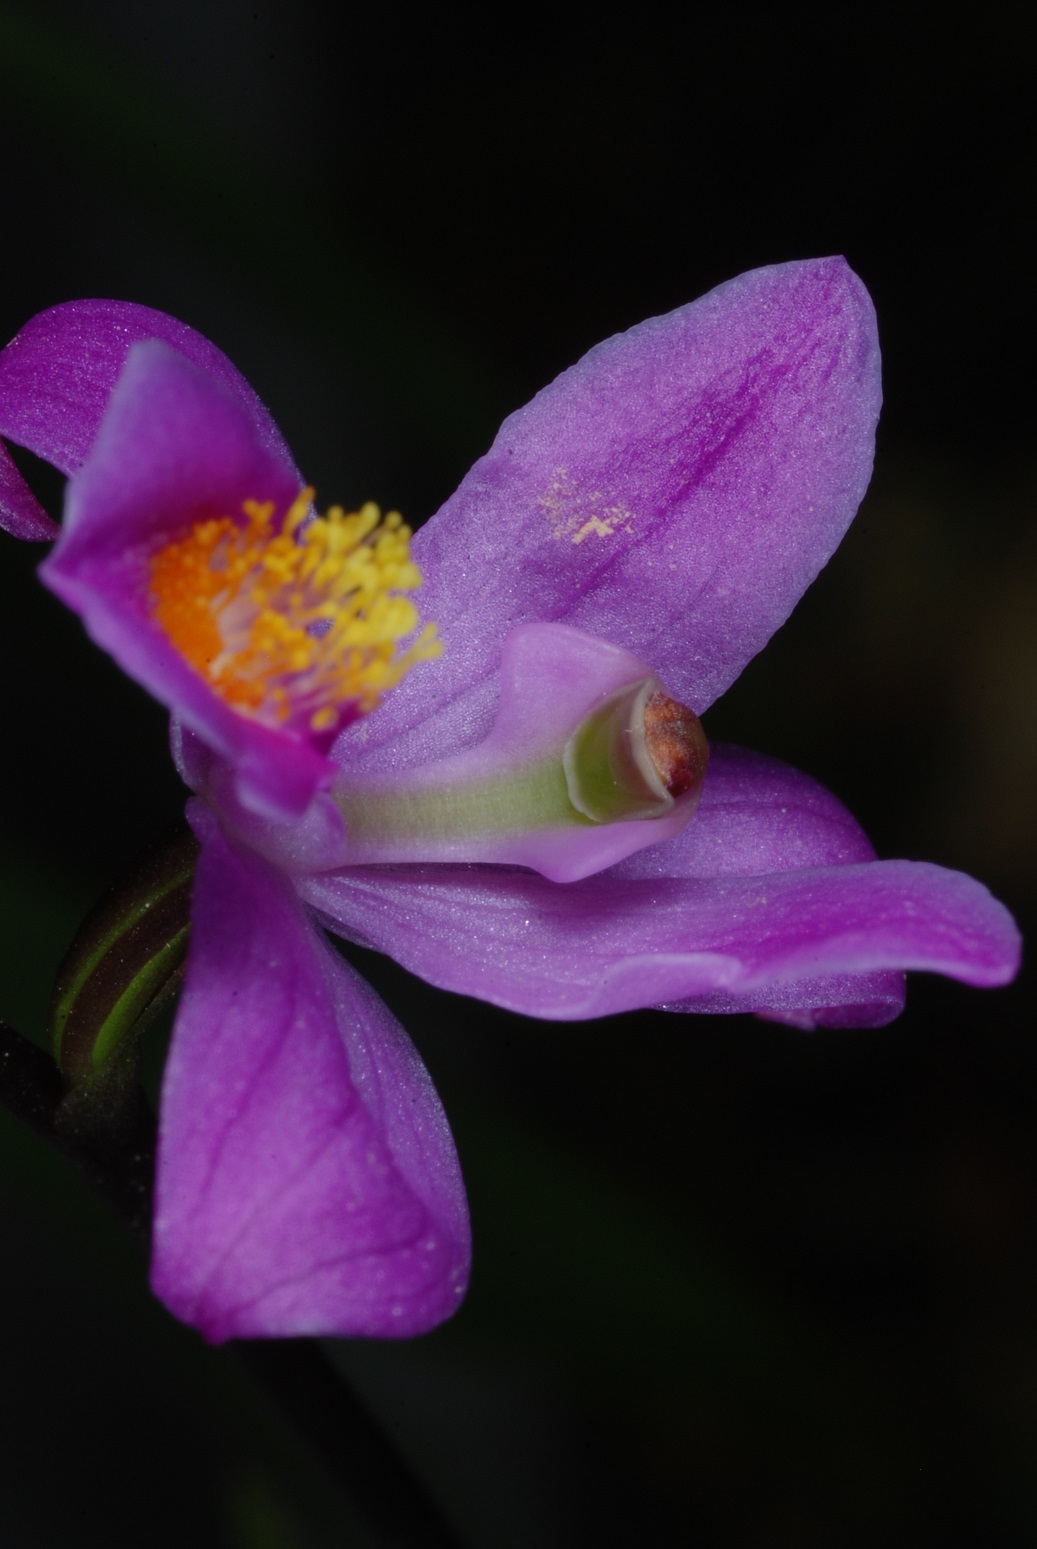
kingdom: Plantae
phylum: Tracheophyta
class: Liliopsida
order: Asparagales
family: Orchidaceae
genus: Calopogon
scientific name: Calopogon multiflorus
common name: Many-flowered grass-pink orchid
